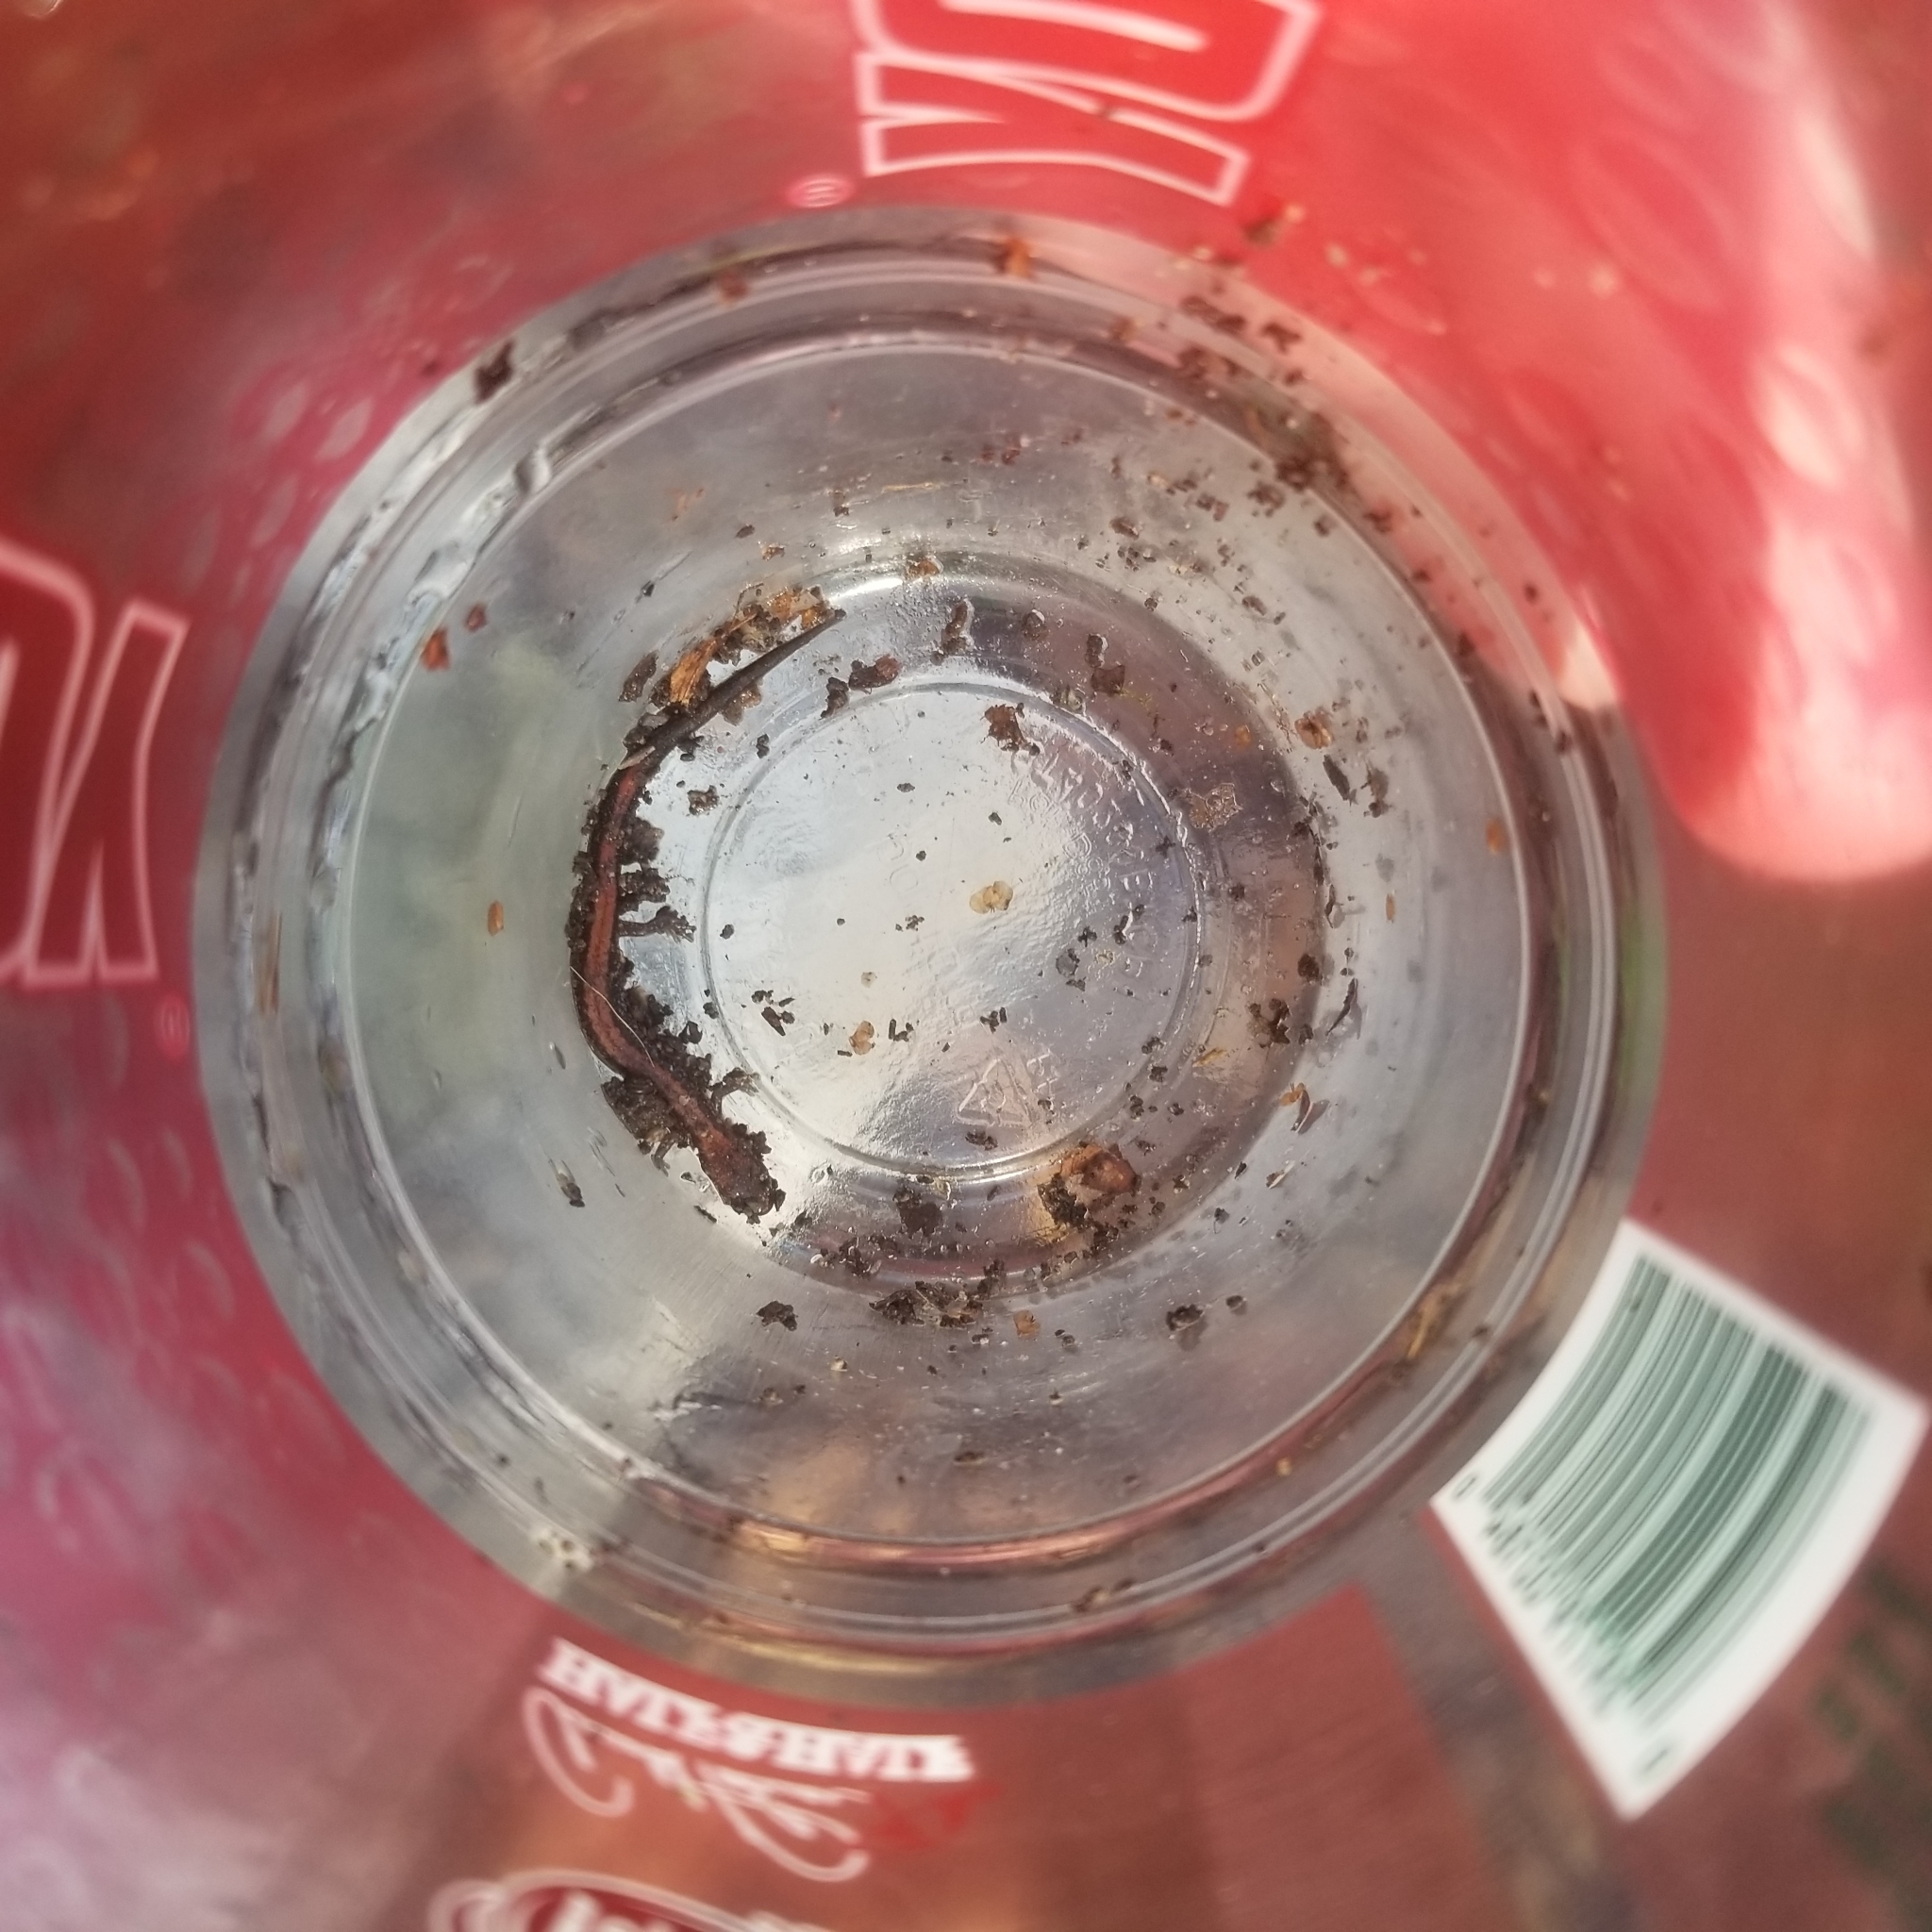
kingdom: Animalia
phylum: Chordata
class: Amphibia
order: Caudata
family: Plethodontidae
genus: Plethodon
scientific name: Plethodon cinereus
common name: Redback salamander
